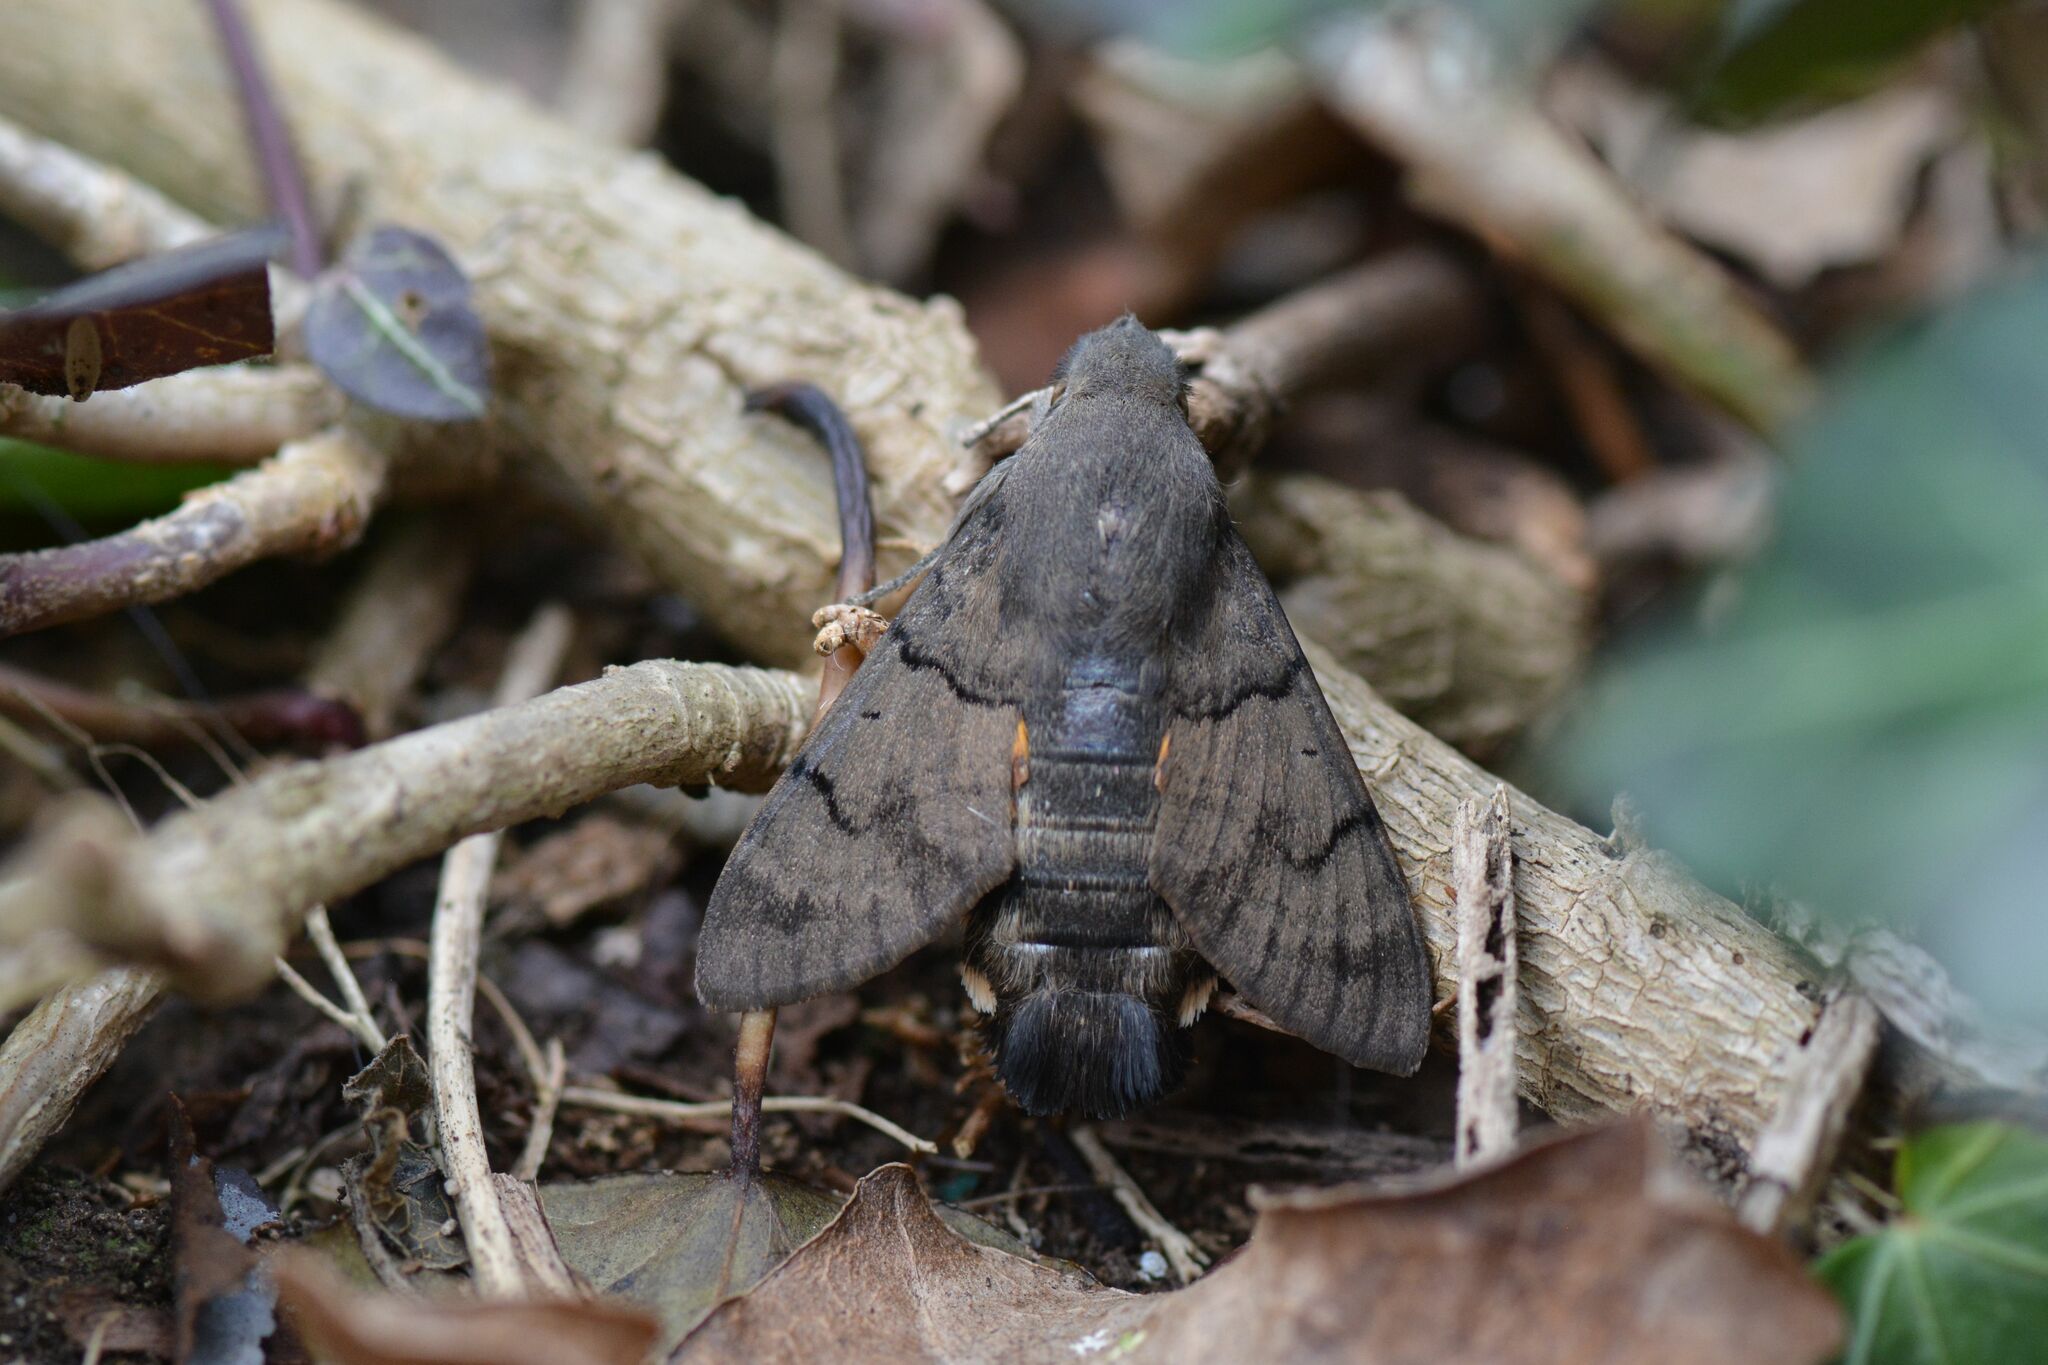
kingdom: Animalia
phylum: Arthropoda
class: Insecta
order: Lepidoptera
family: Sphingidae
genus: Macroglossum
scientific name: Macroglossum stellatarum
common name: Humming-bird hawk-moth
